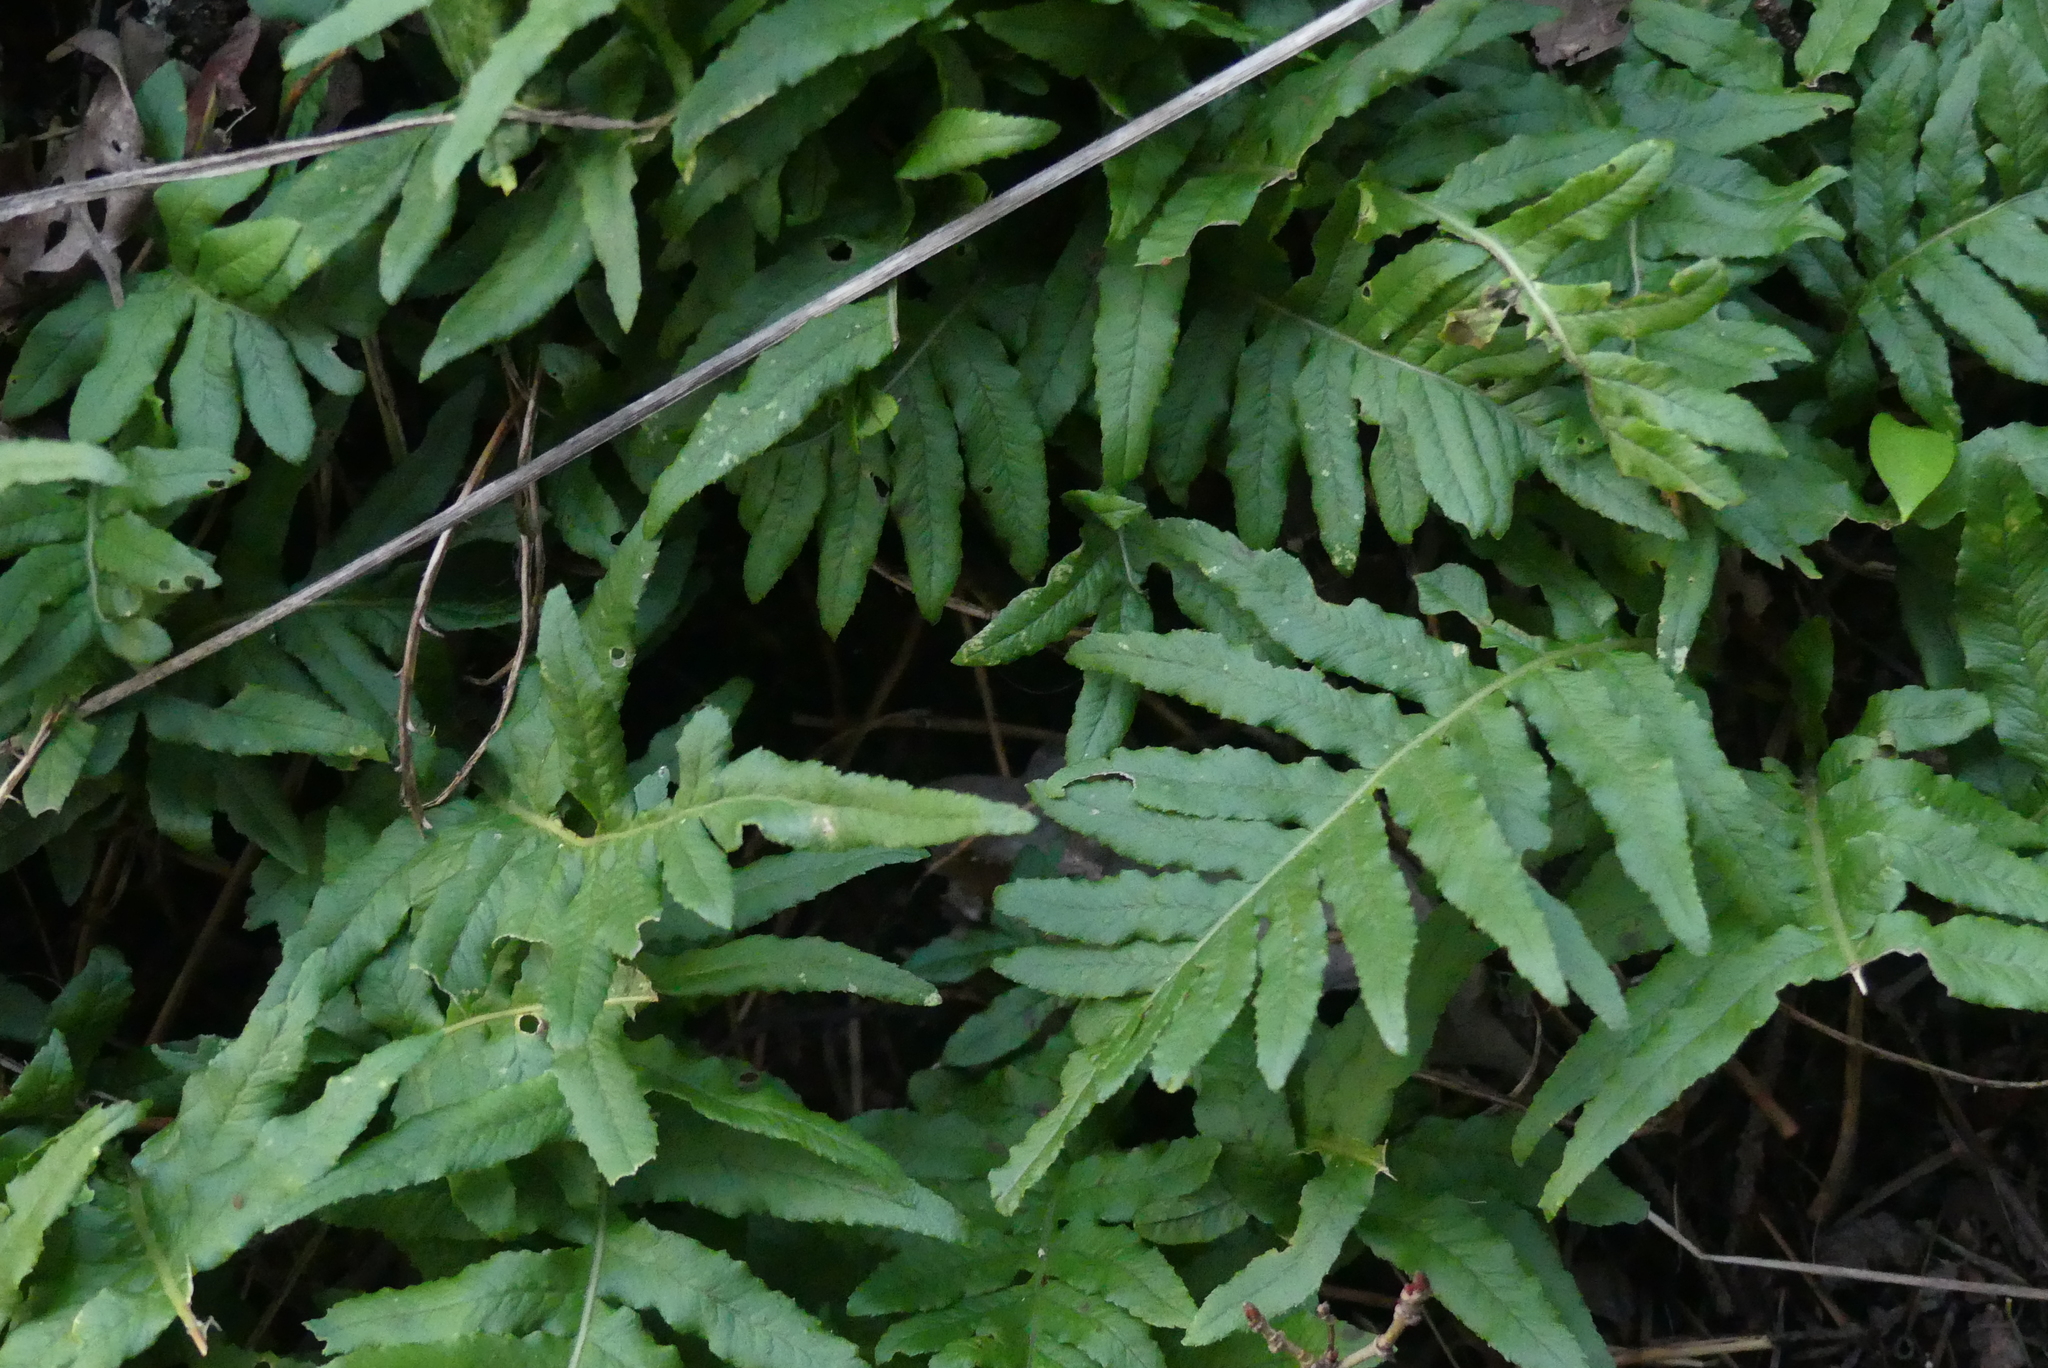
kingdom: Plantae
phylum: Tracheophyta
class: Polypodiopsida
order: Polypodiales
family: Polypodiaceae
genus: Polypodium
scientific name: Polypodium glycyrrhiza
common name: Licorice fern
